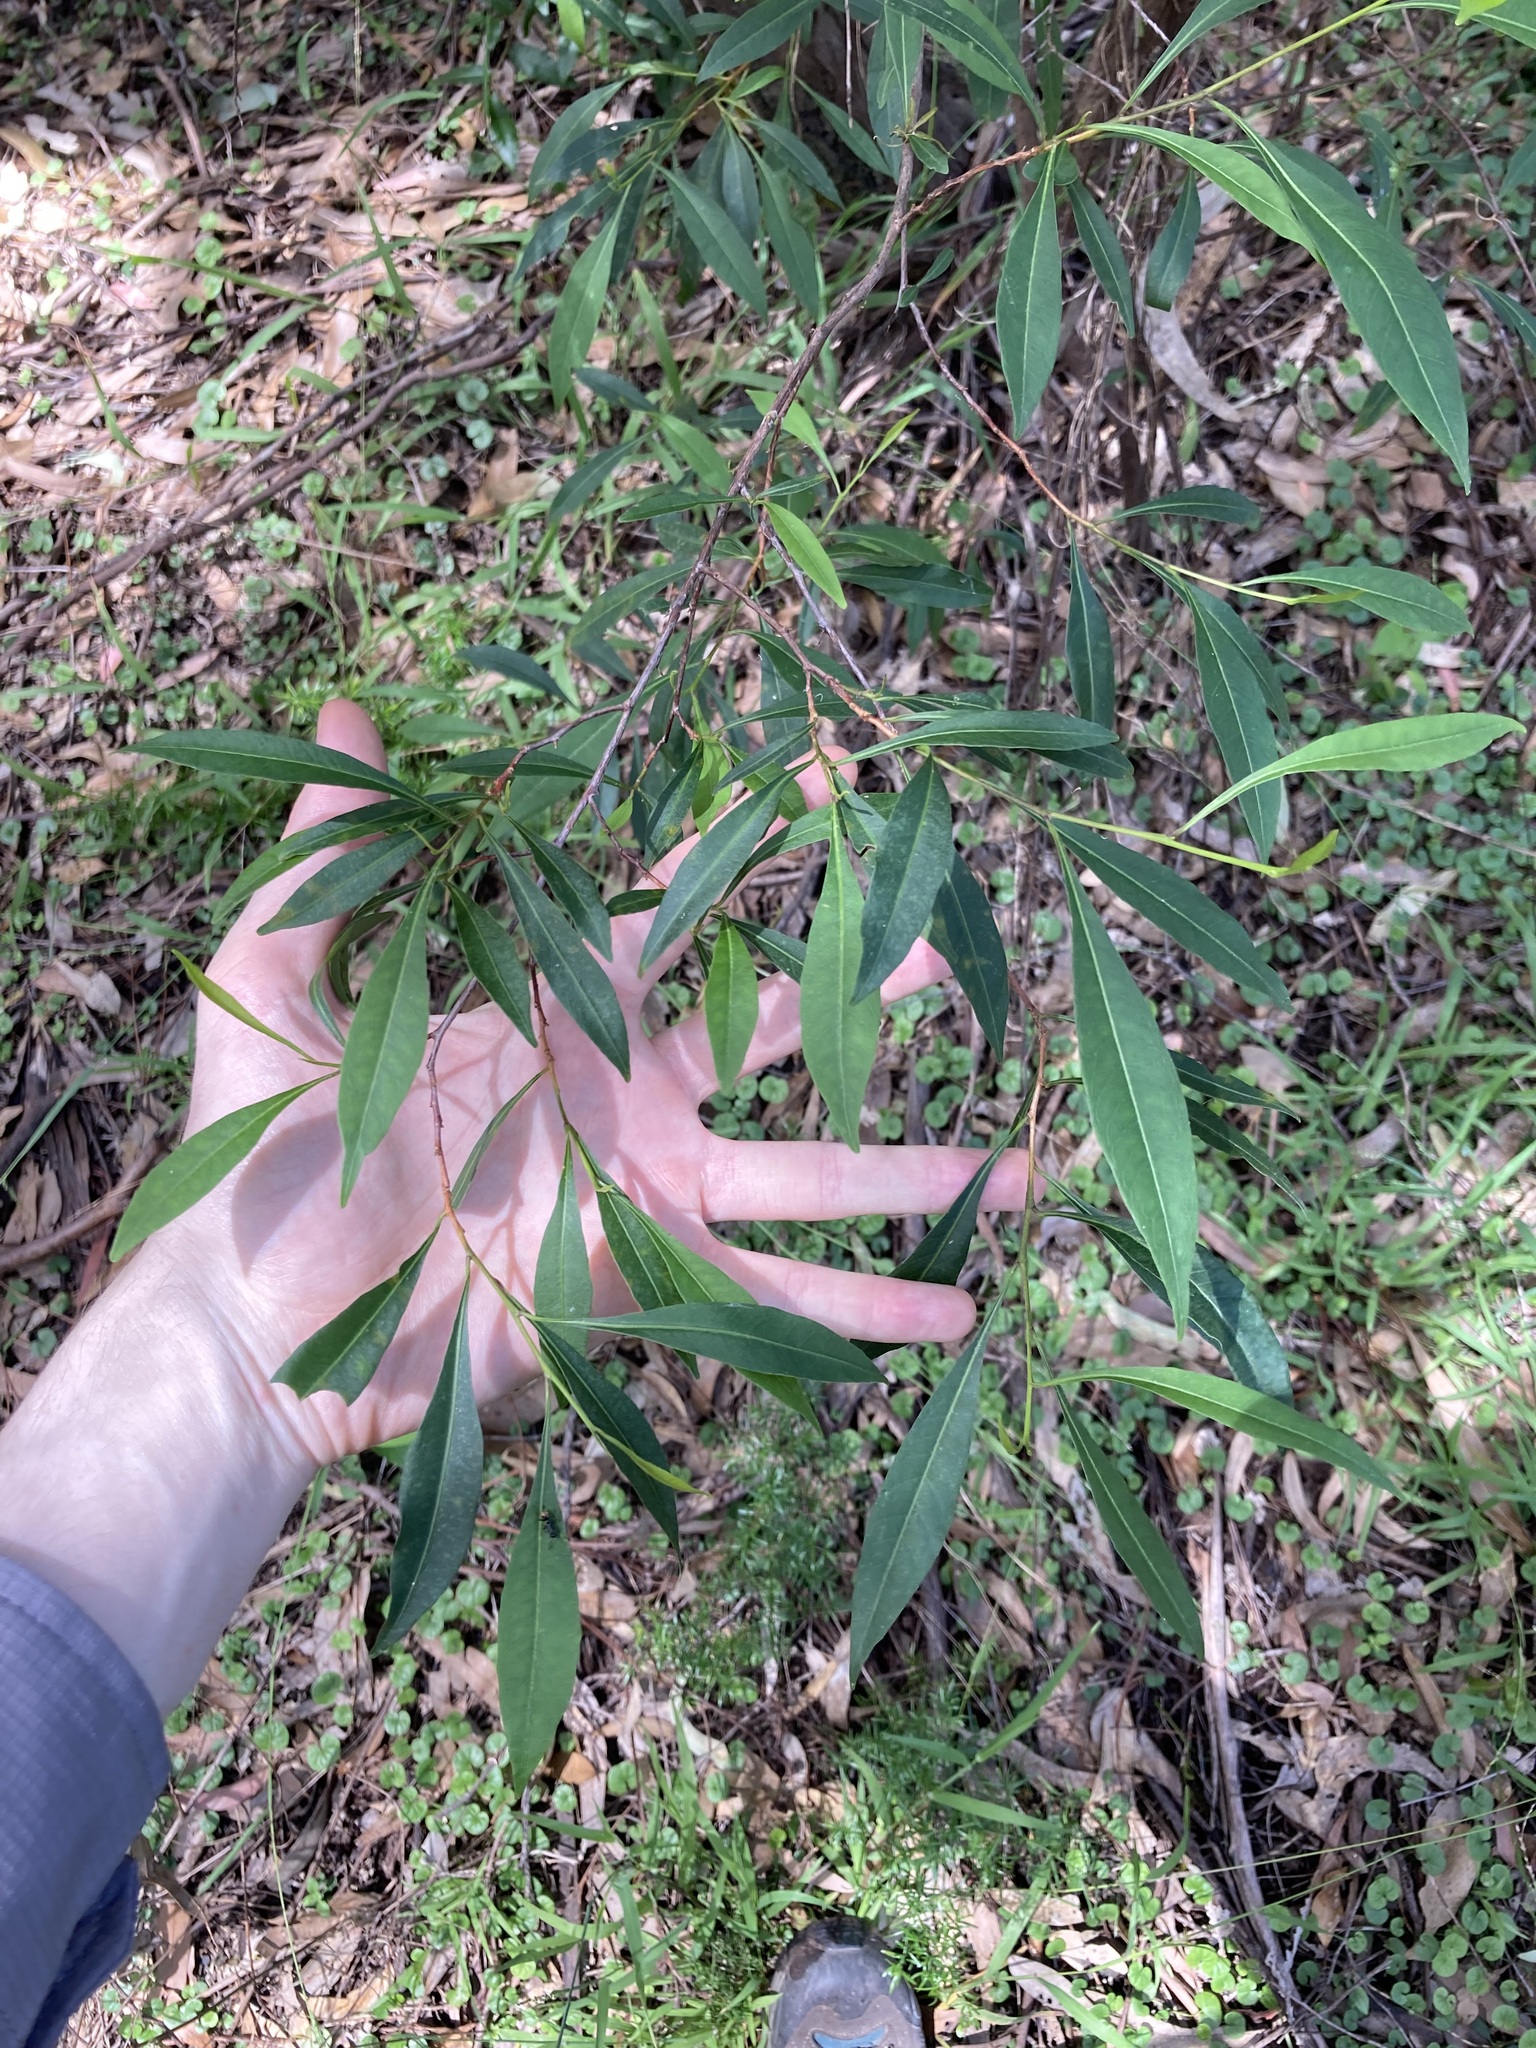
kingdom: Plantae
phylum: Tracheophyta
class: Magnoliopsida
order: Sapindales
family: Sapindaceae
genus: Dodonaea
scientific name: Dodonaea triquetra
